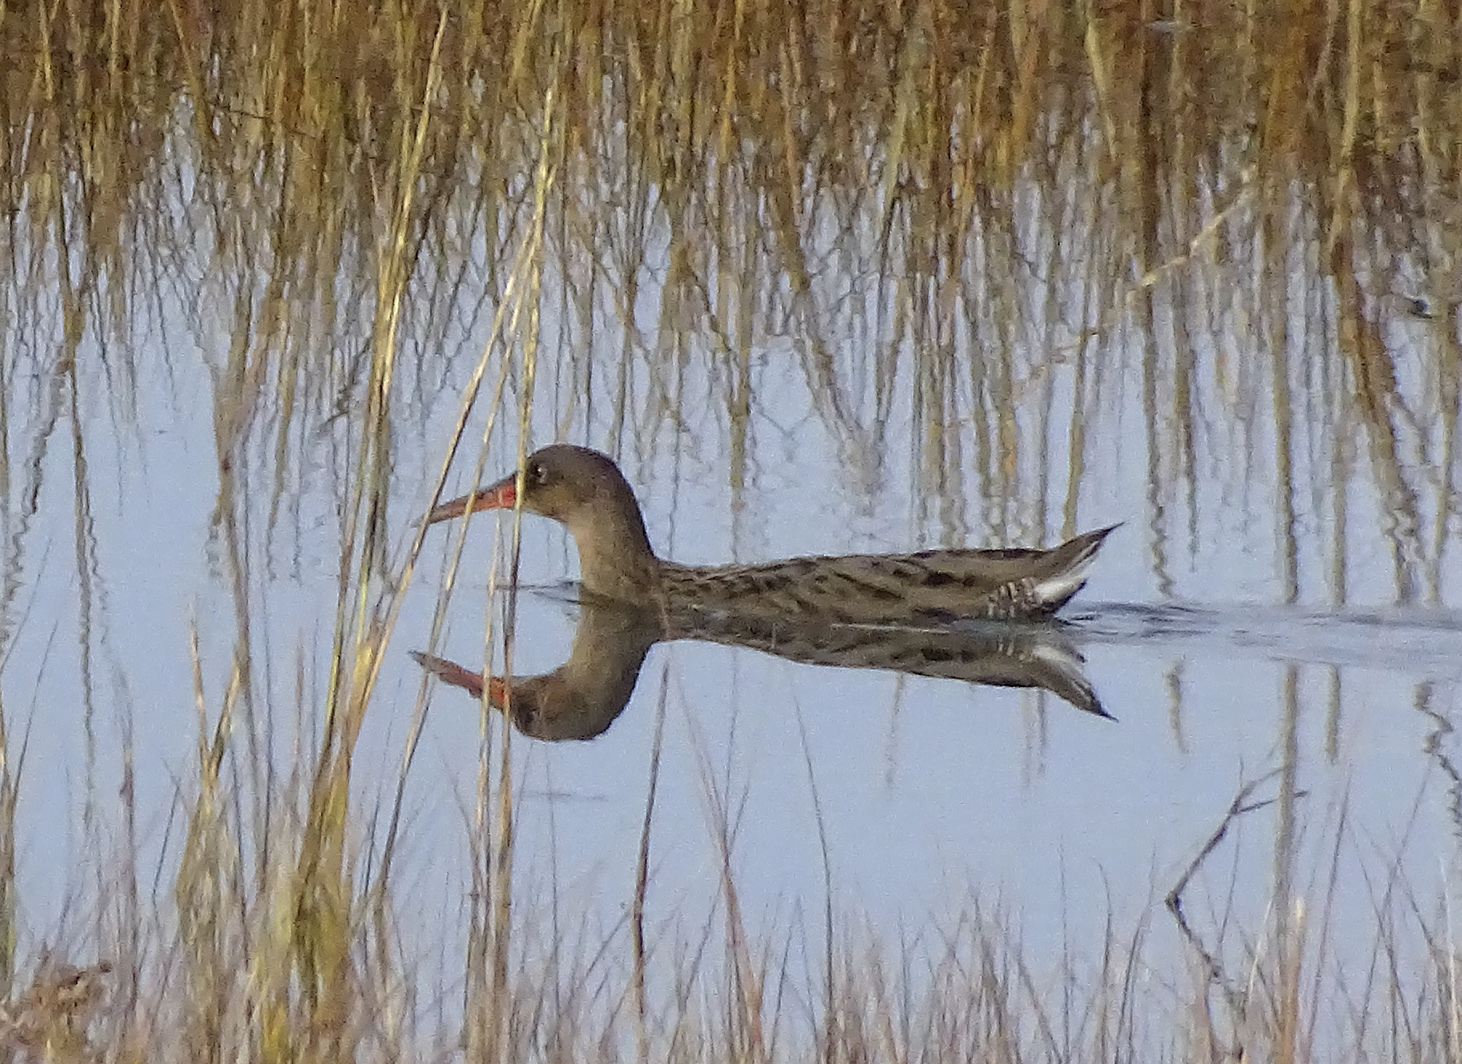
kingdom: Animalia
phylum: Chordata
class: Aves
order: Gruiformes
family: Rallidae
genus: Rallus
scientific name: Rallus obsoletus
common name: Ridgway's rail
